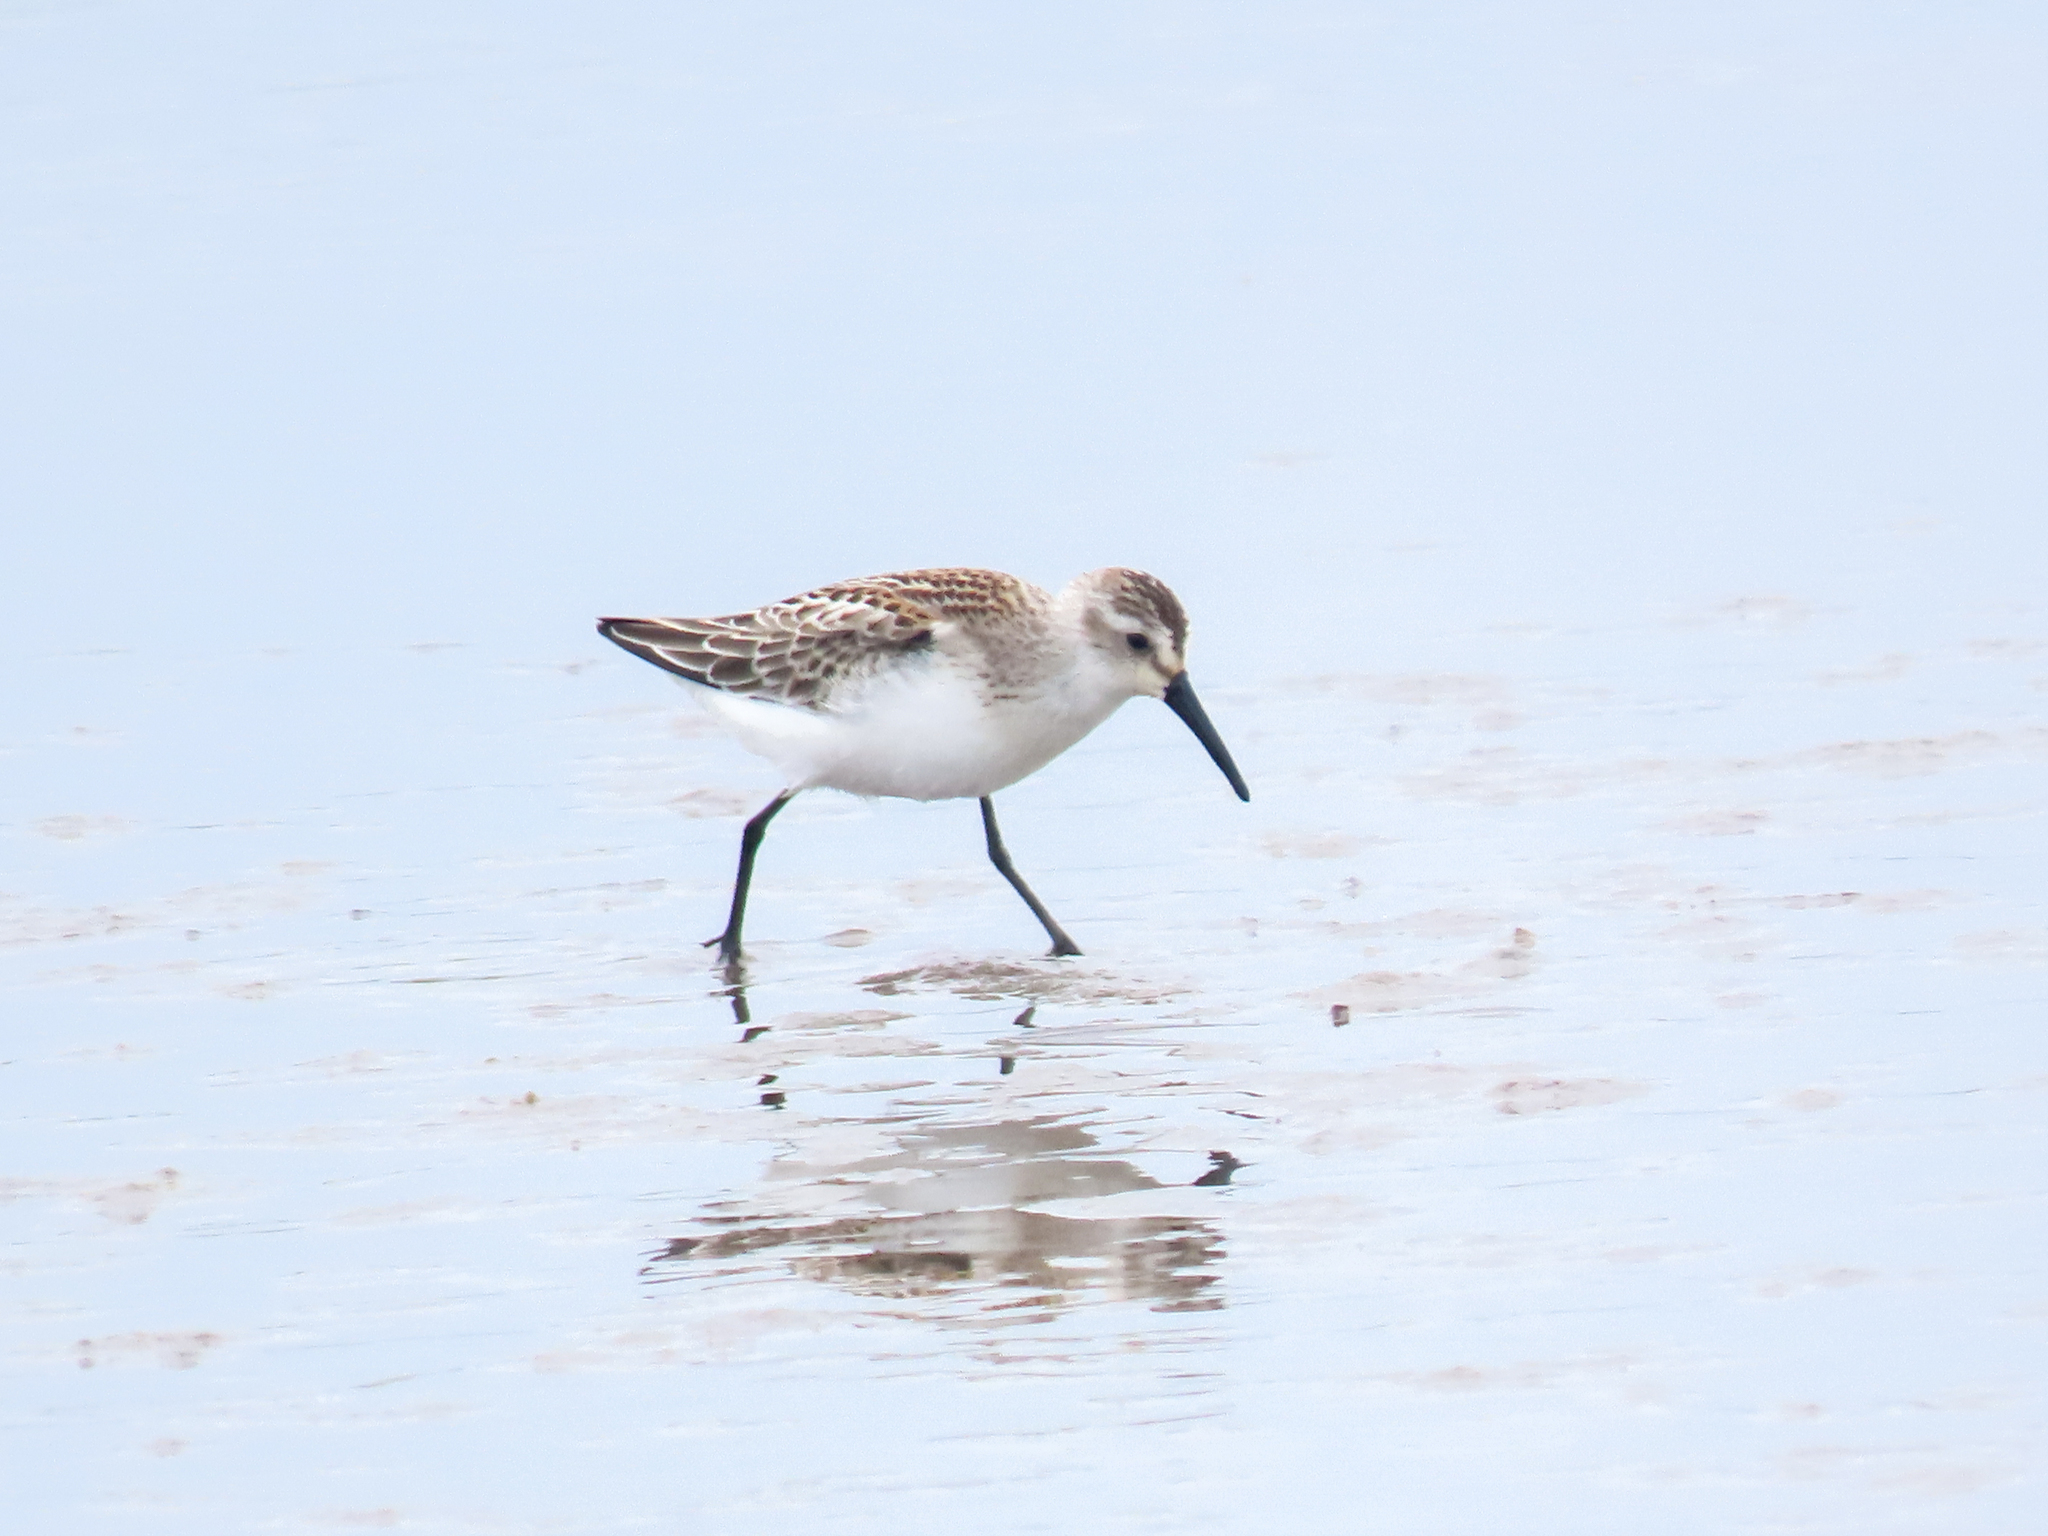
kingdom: Animalia
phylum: Chordata
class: Aves
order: Charadriiformes
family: Scolopacidae
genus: Calidris
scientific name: Calidris mauri
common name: Western sandpiper
